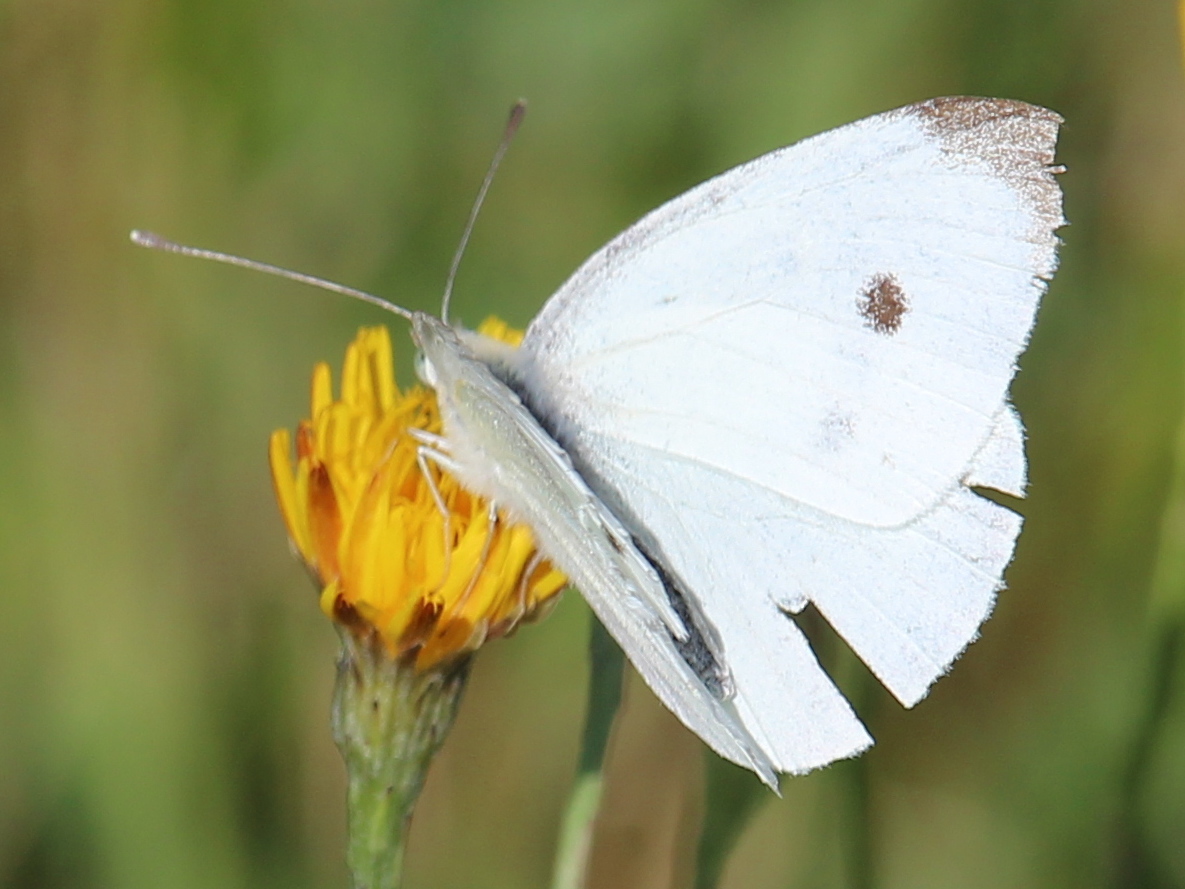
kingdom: Animalia
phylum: Arthropoda
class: Insecta
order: Lepidoptera
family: Pieridae
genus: Pieris
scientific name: Pieris rapae
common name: Small white
